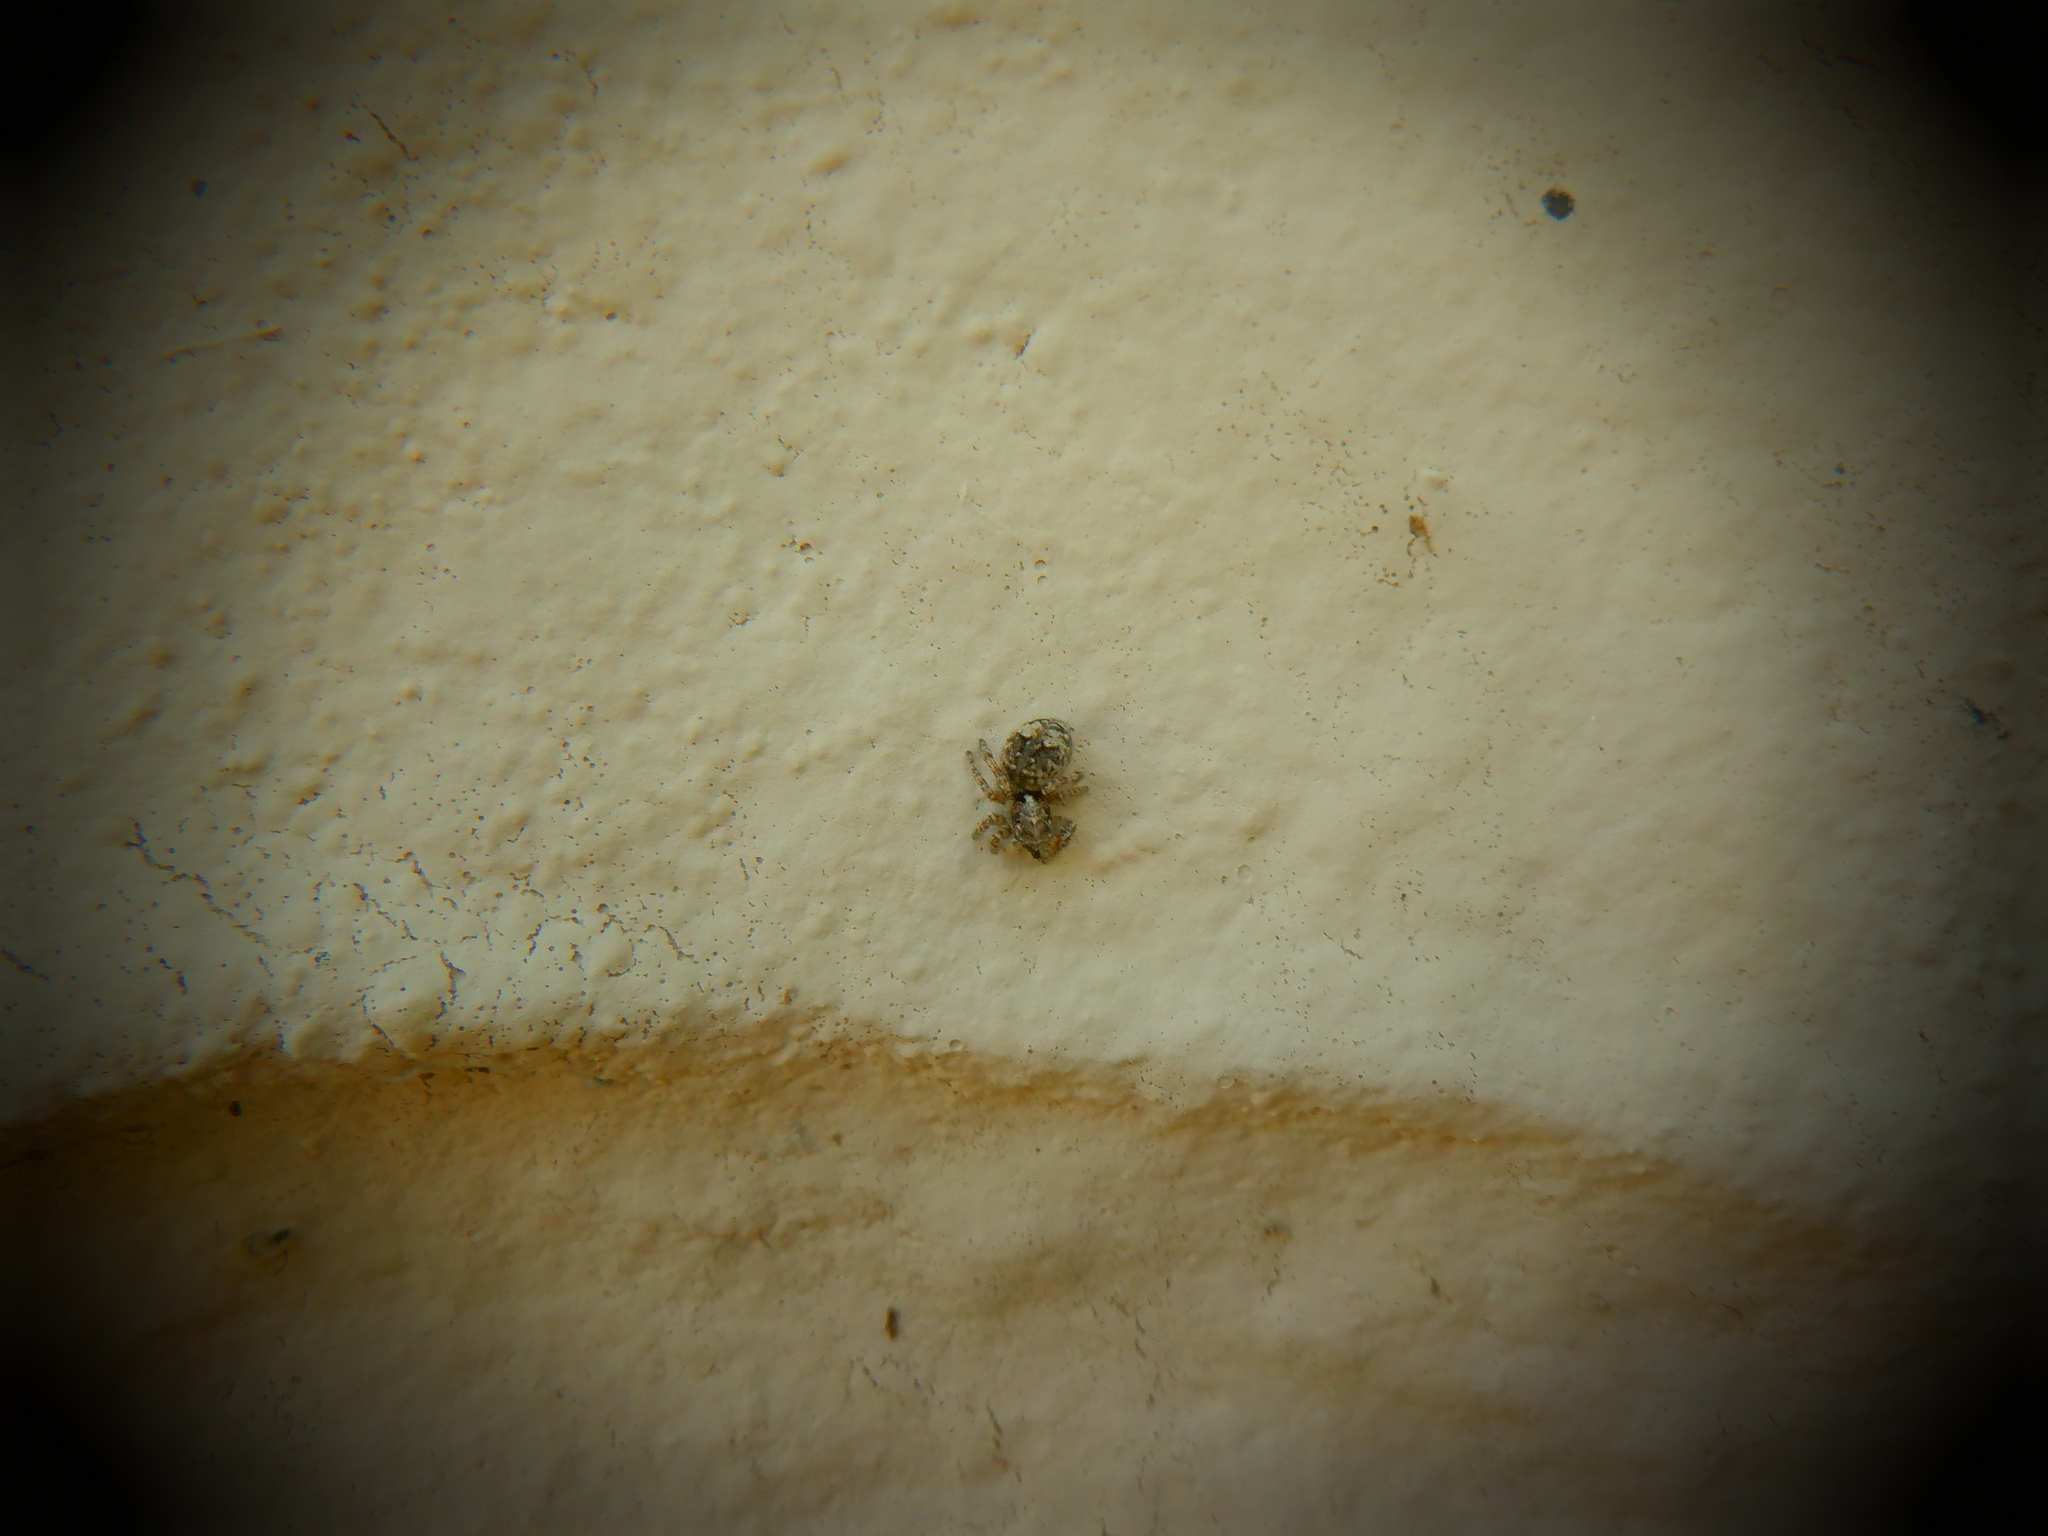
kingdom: Animalia
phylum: Arthropoda
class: Arachnida
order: Araneae
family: Salticidae
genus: Attulus
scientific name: Attulus fasciger
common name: Asiatic wall jumping spider
